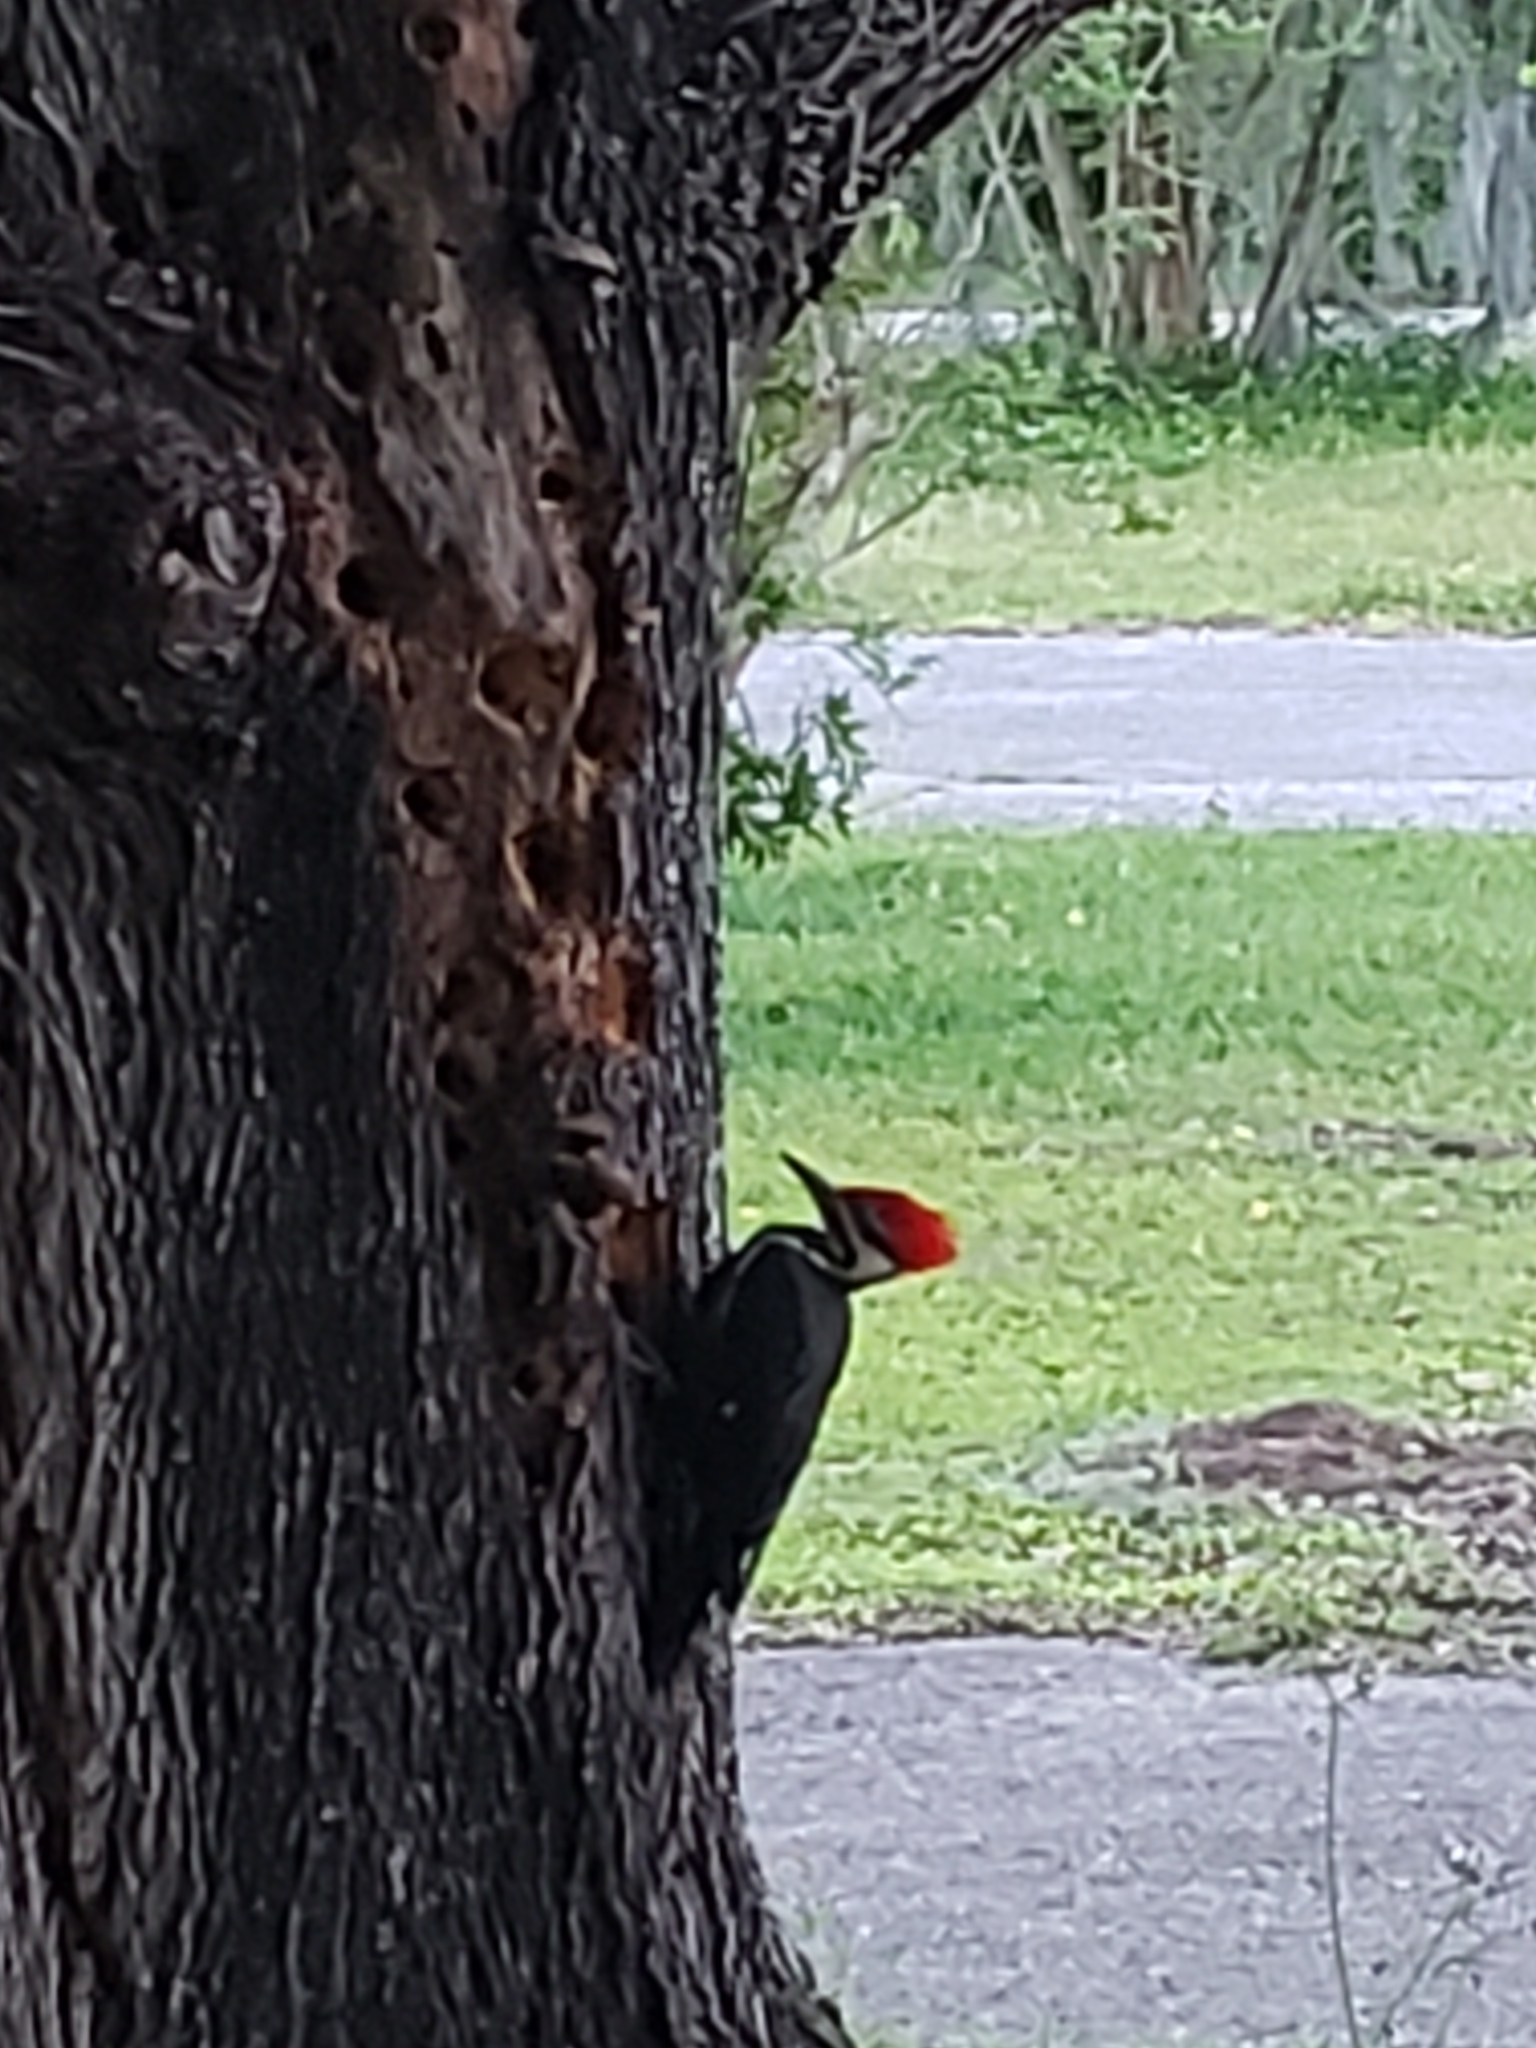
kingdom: Animalia
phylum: Chordata
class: Aves
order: Piciformes
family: Picidae
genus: Dryocopus
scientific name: Dryocopus pileatus
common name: Pileated woodpecker
